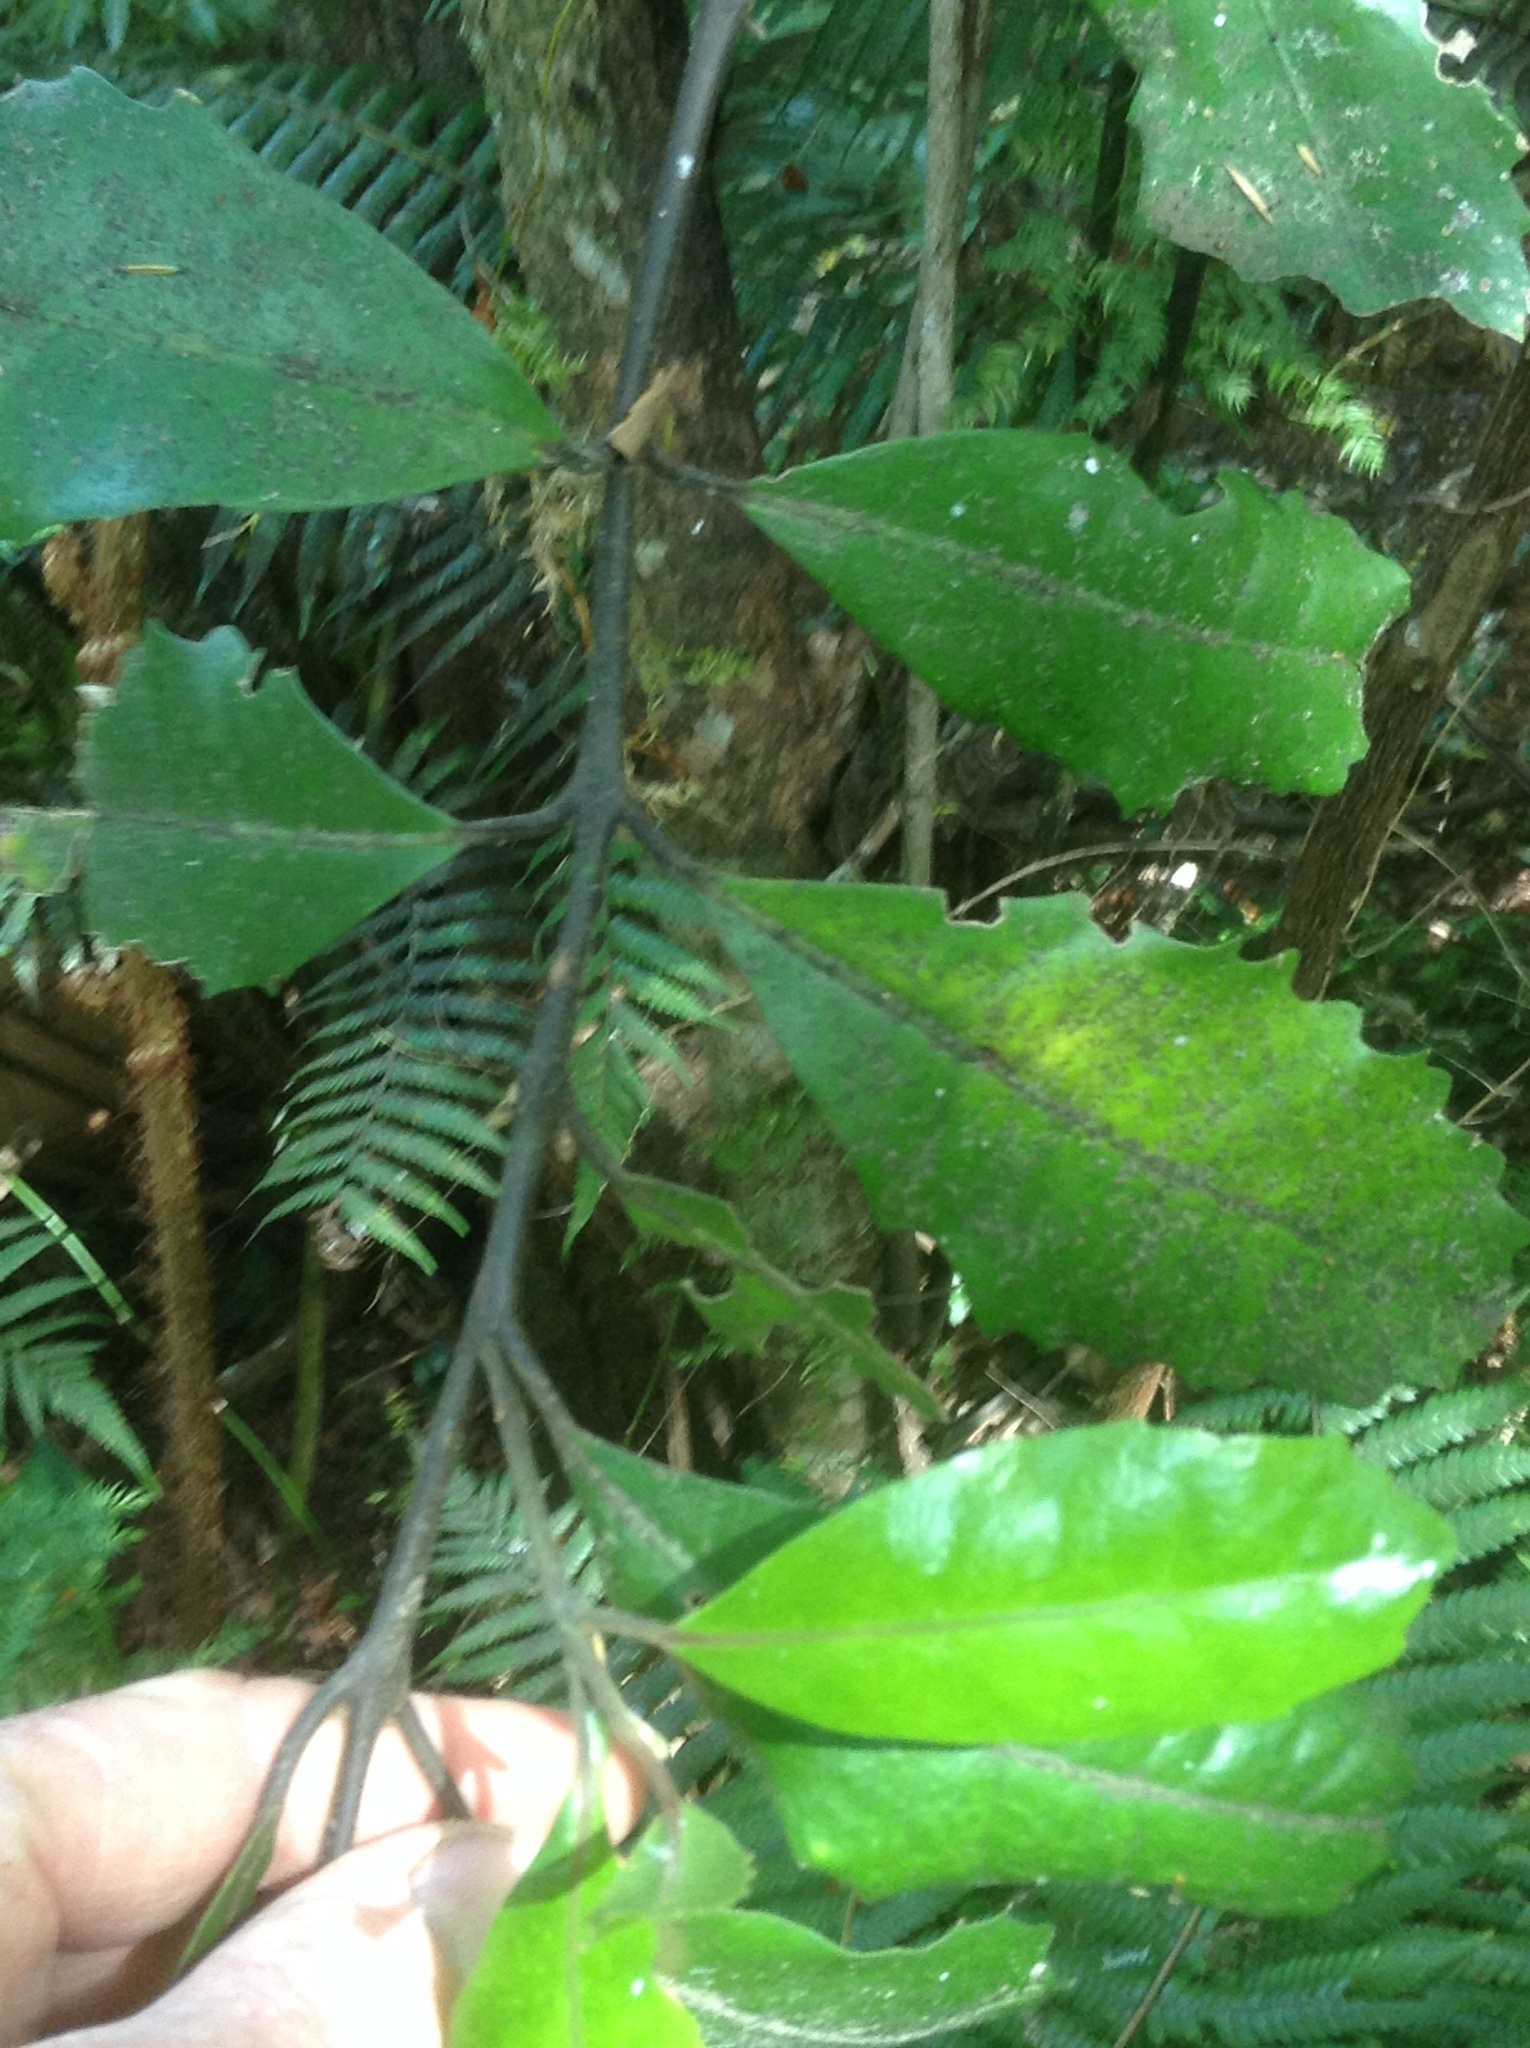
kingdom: Plantae
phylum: Tracheophyta
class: Magnoliopsida
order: Laurales
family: Monimiaceae
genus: Hedycarya
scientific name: Hedycarya arborea
